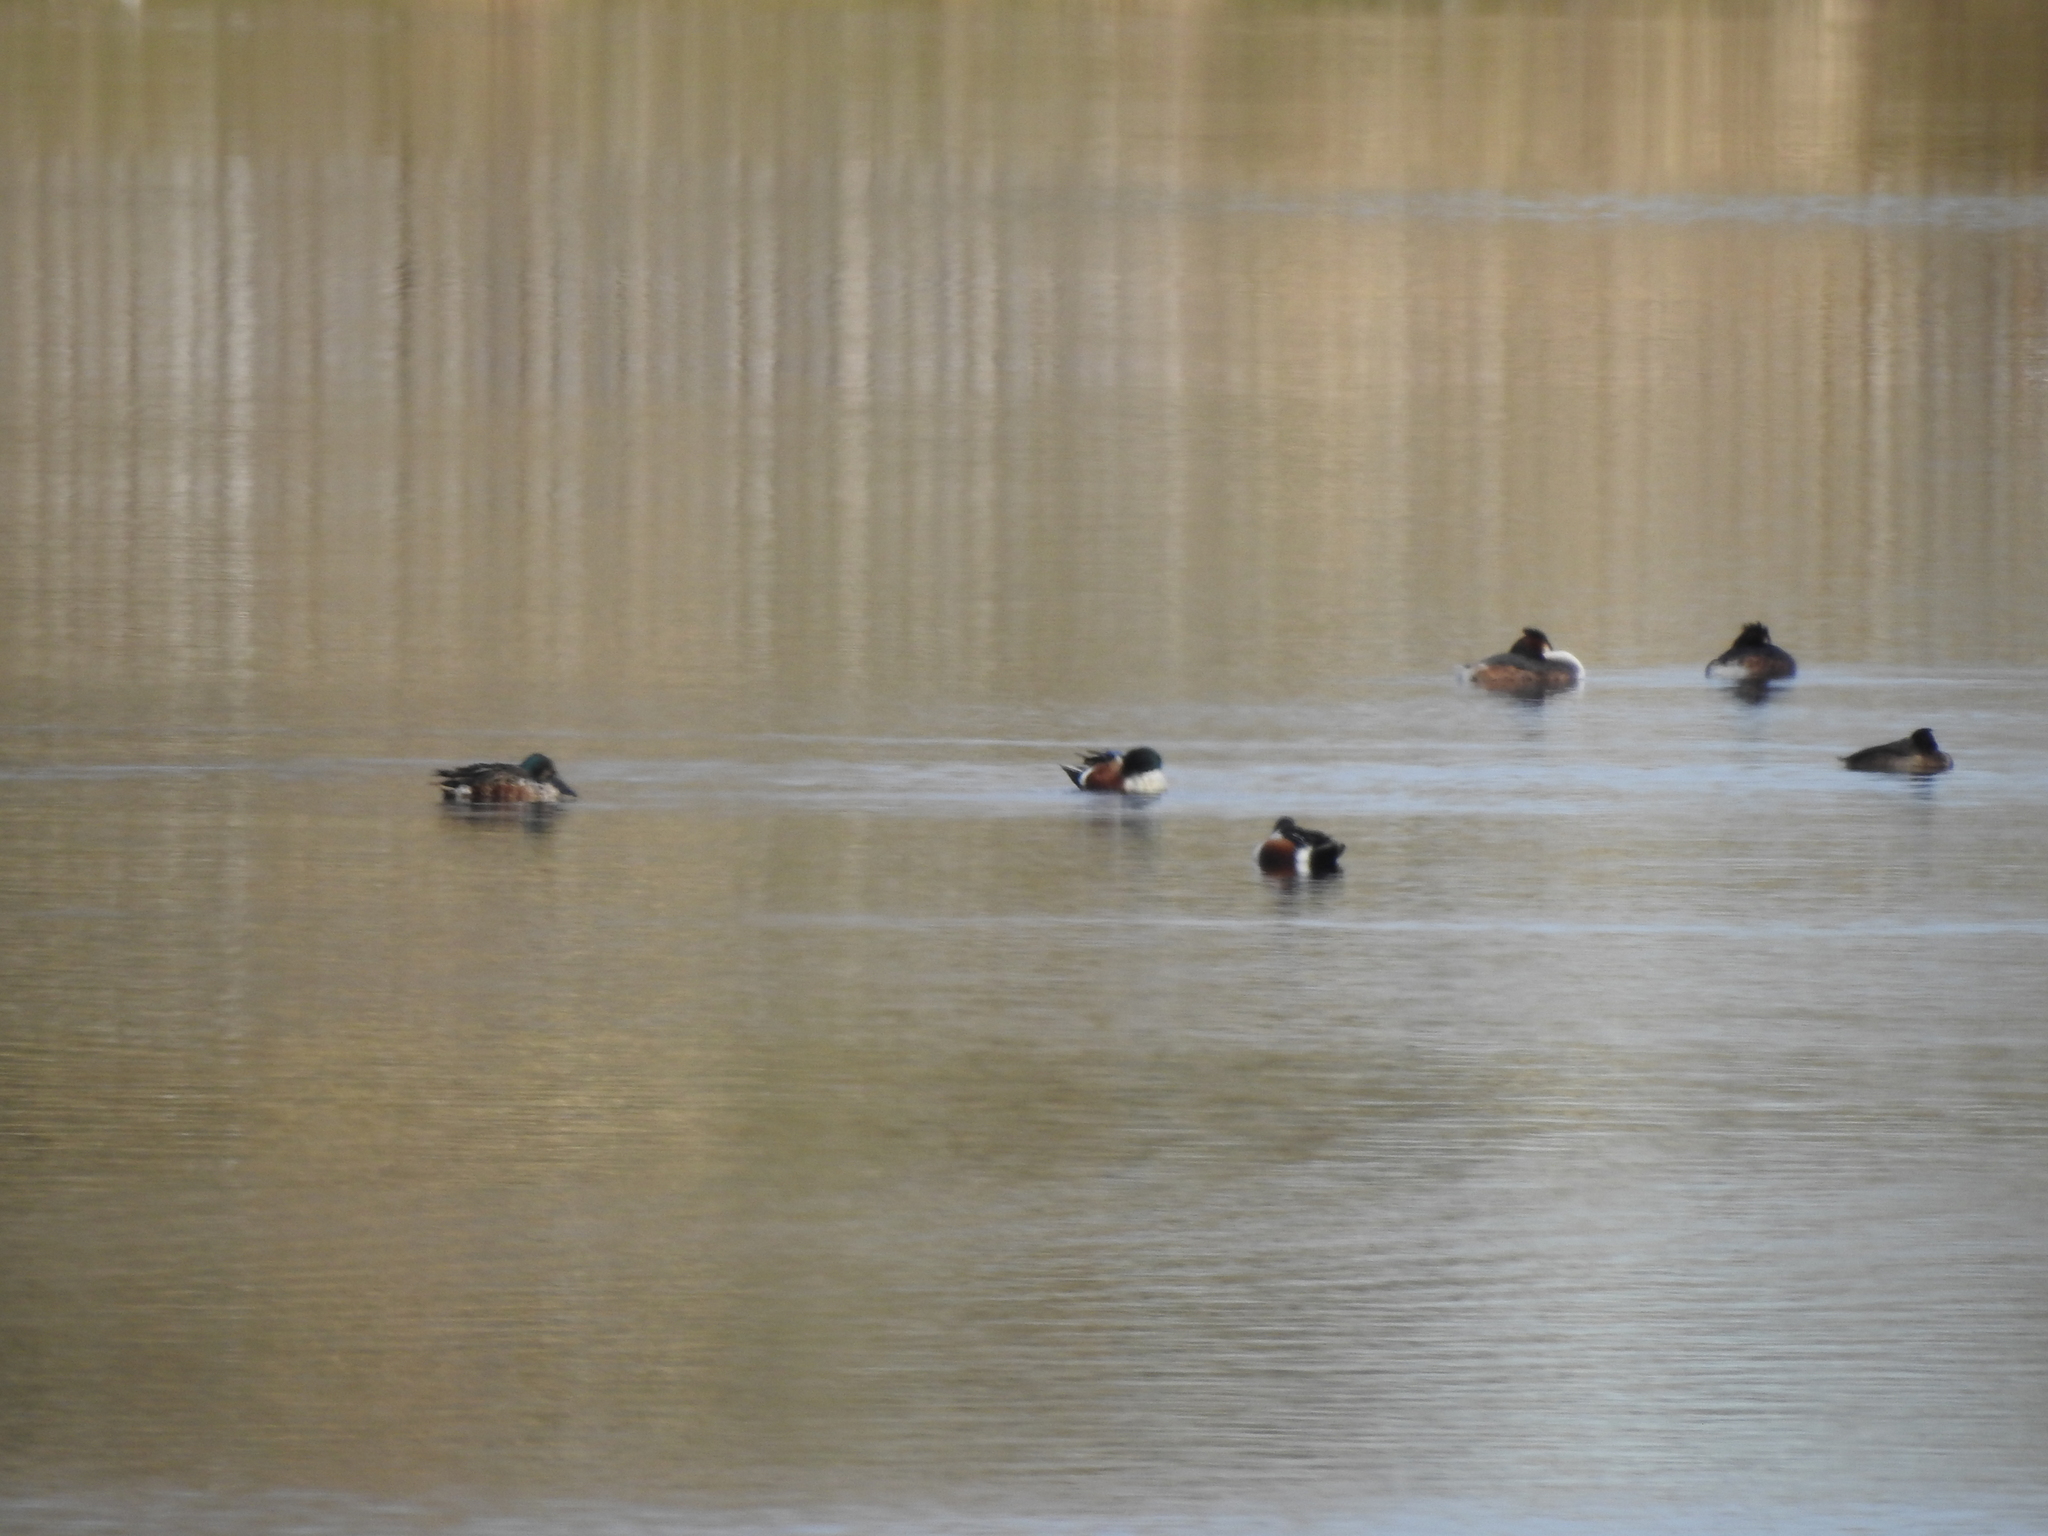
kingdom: Animalia
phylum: Chordata
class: Aves
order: Anseriformes
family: Anatidae
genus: Spatula
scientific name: Spatula clypeata
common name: Northern shoveler
